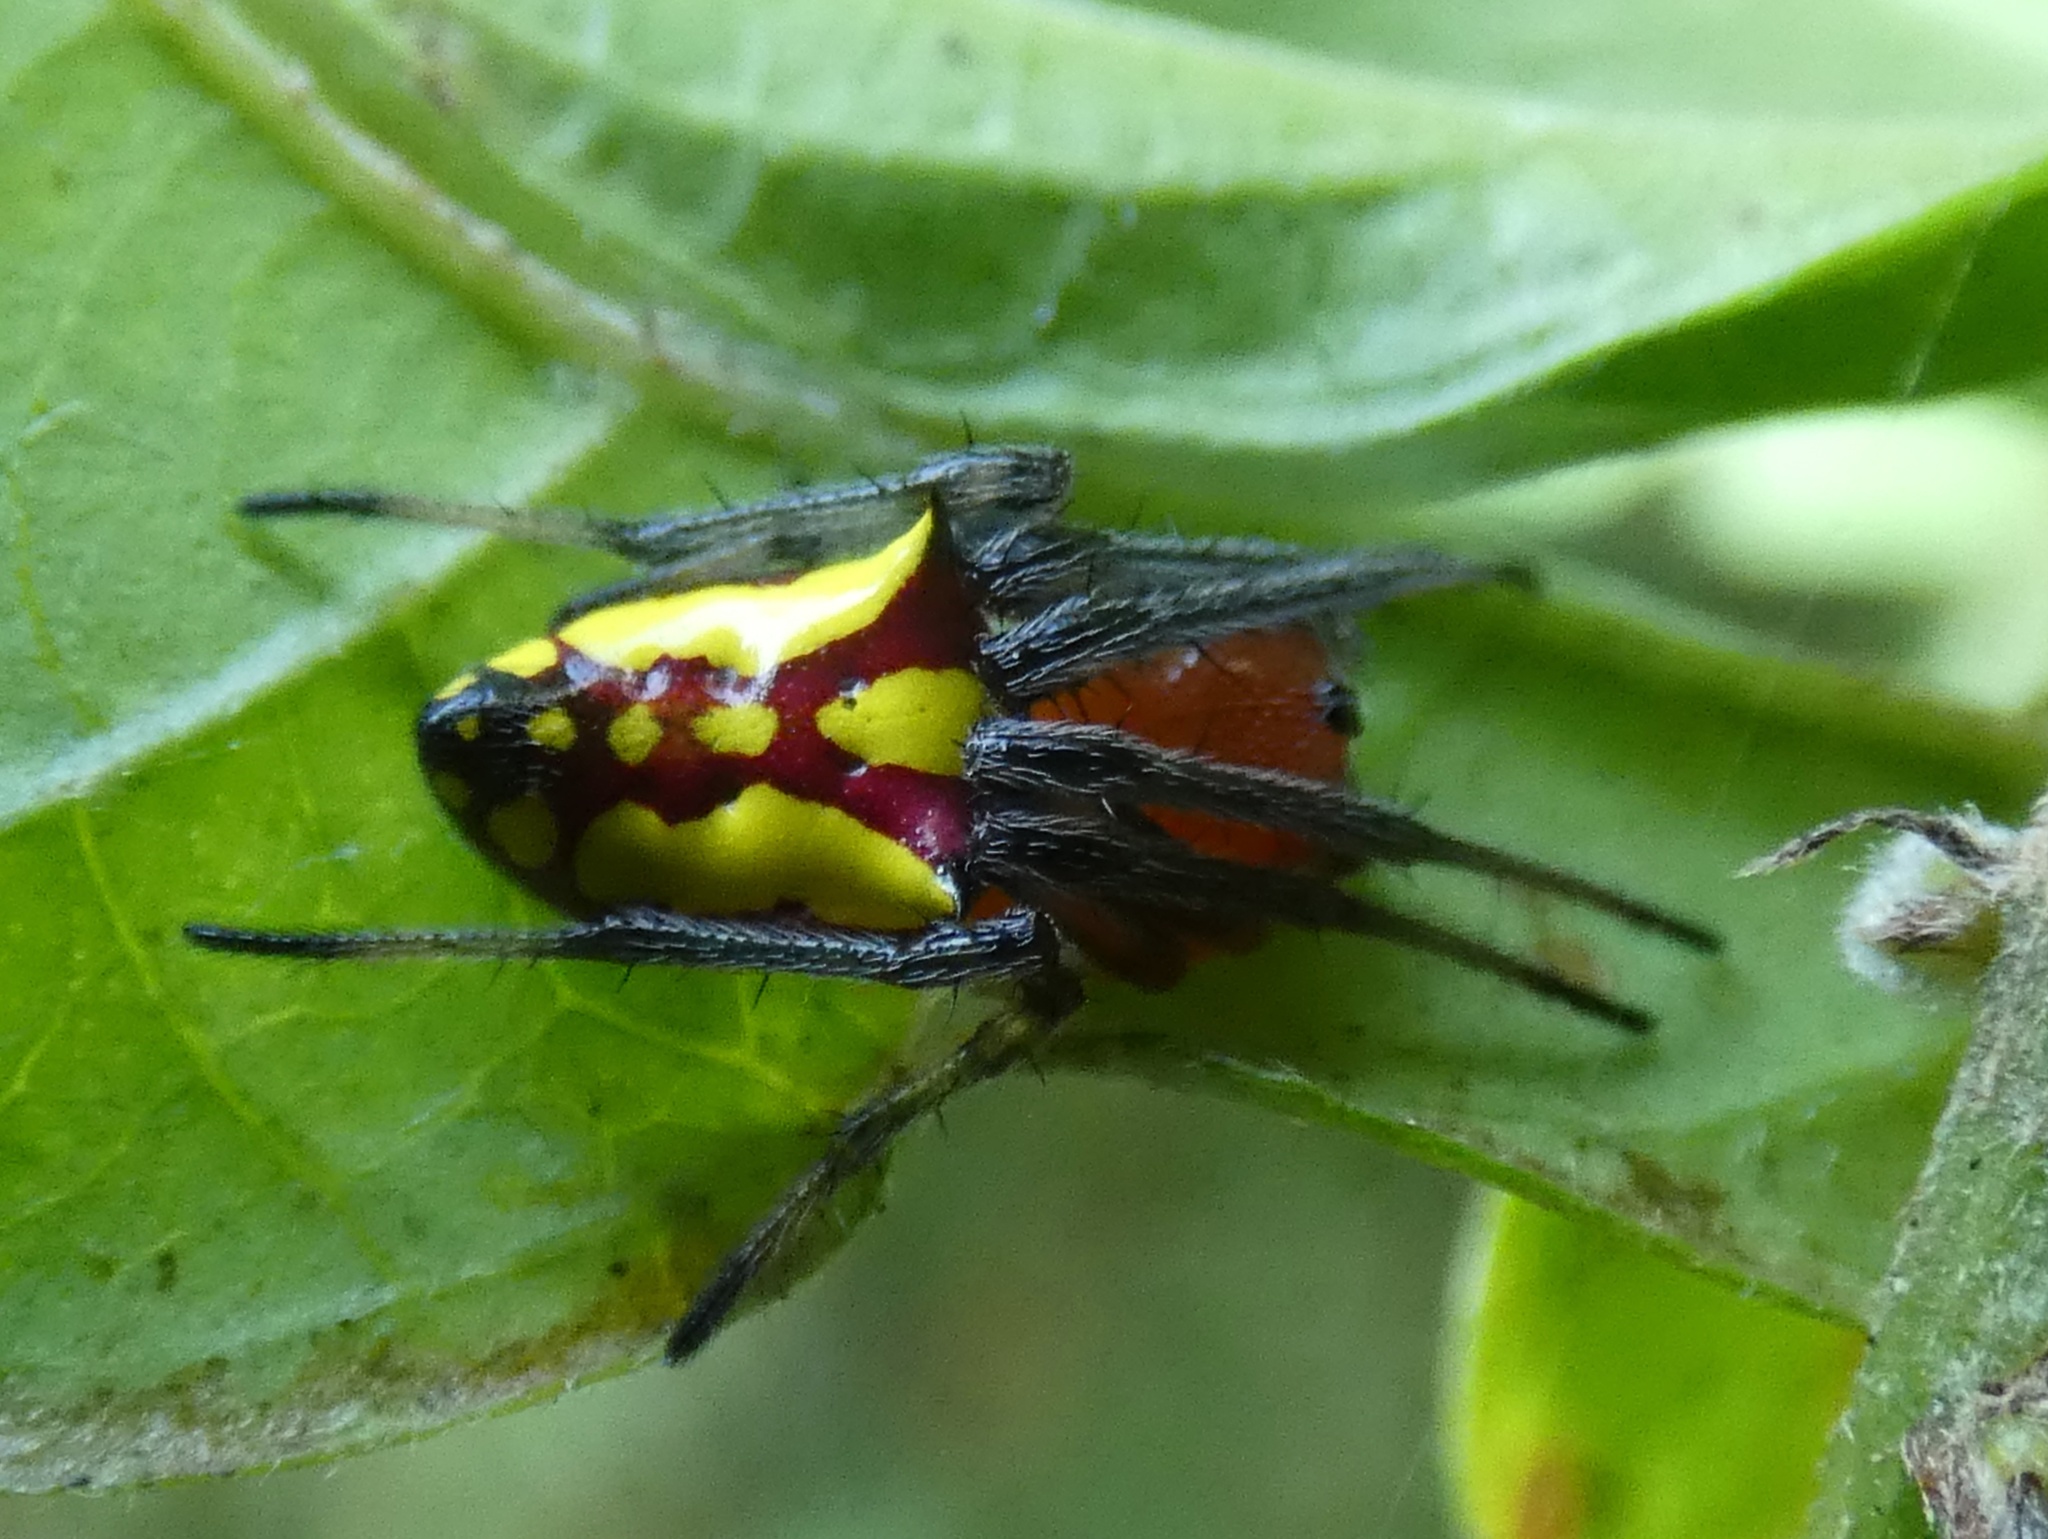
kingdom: Animalia
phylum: Arthropoda
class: Arachnida
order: Araneae
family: Araneidae
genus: Alpaida
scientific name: Alpaida bicornuta
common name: Orb weavers
